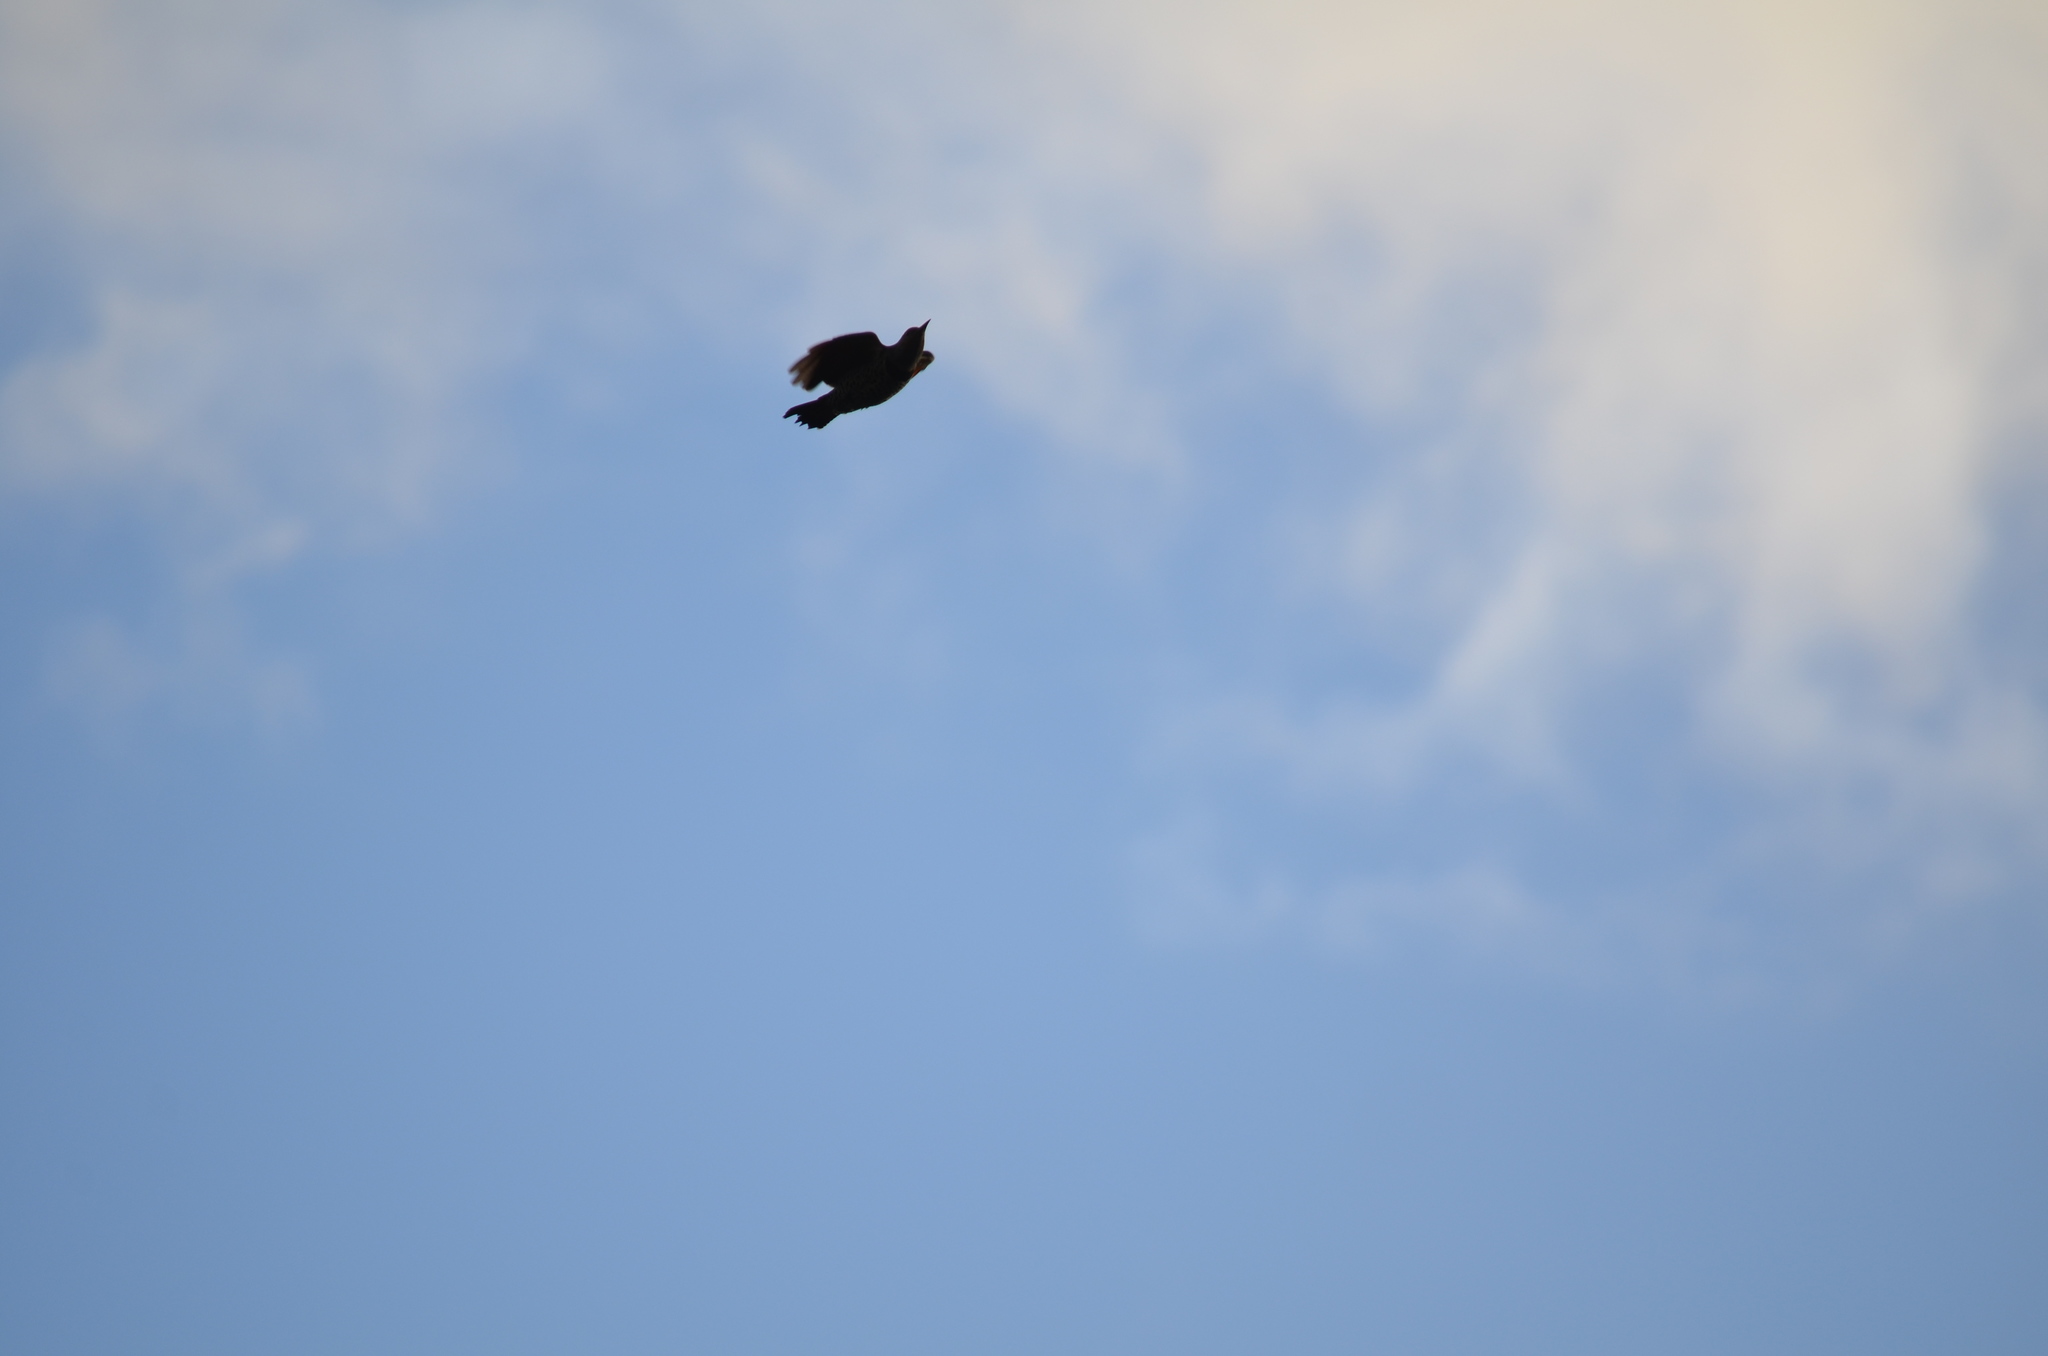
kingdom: Animalia
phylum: Chordata
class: Aves
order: Piciformes
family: Picidae
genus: Colaptes
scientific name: Colaptes auratus
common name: Northern flicker
